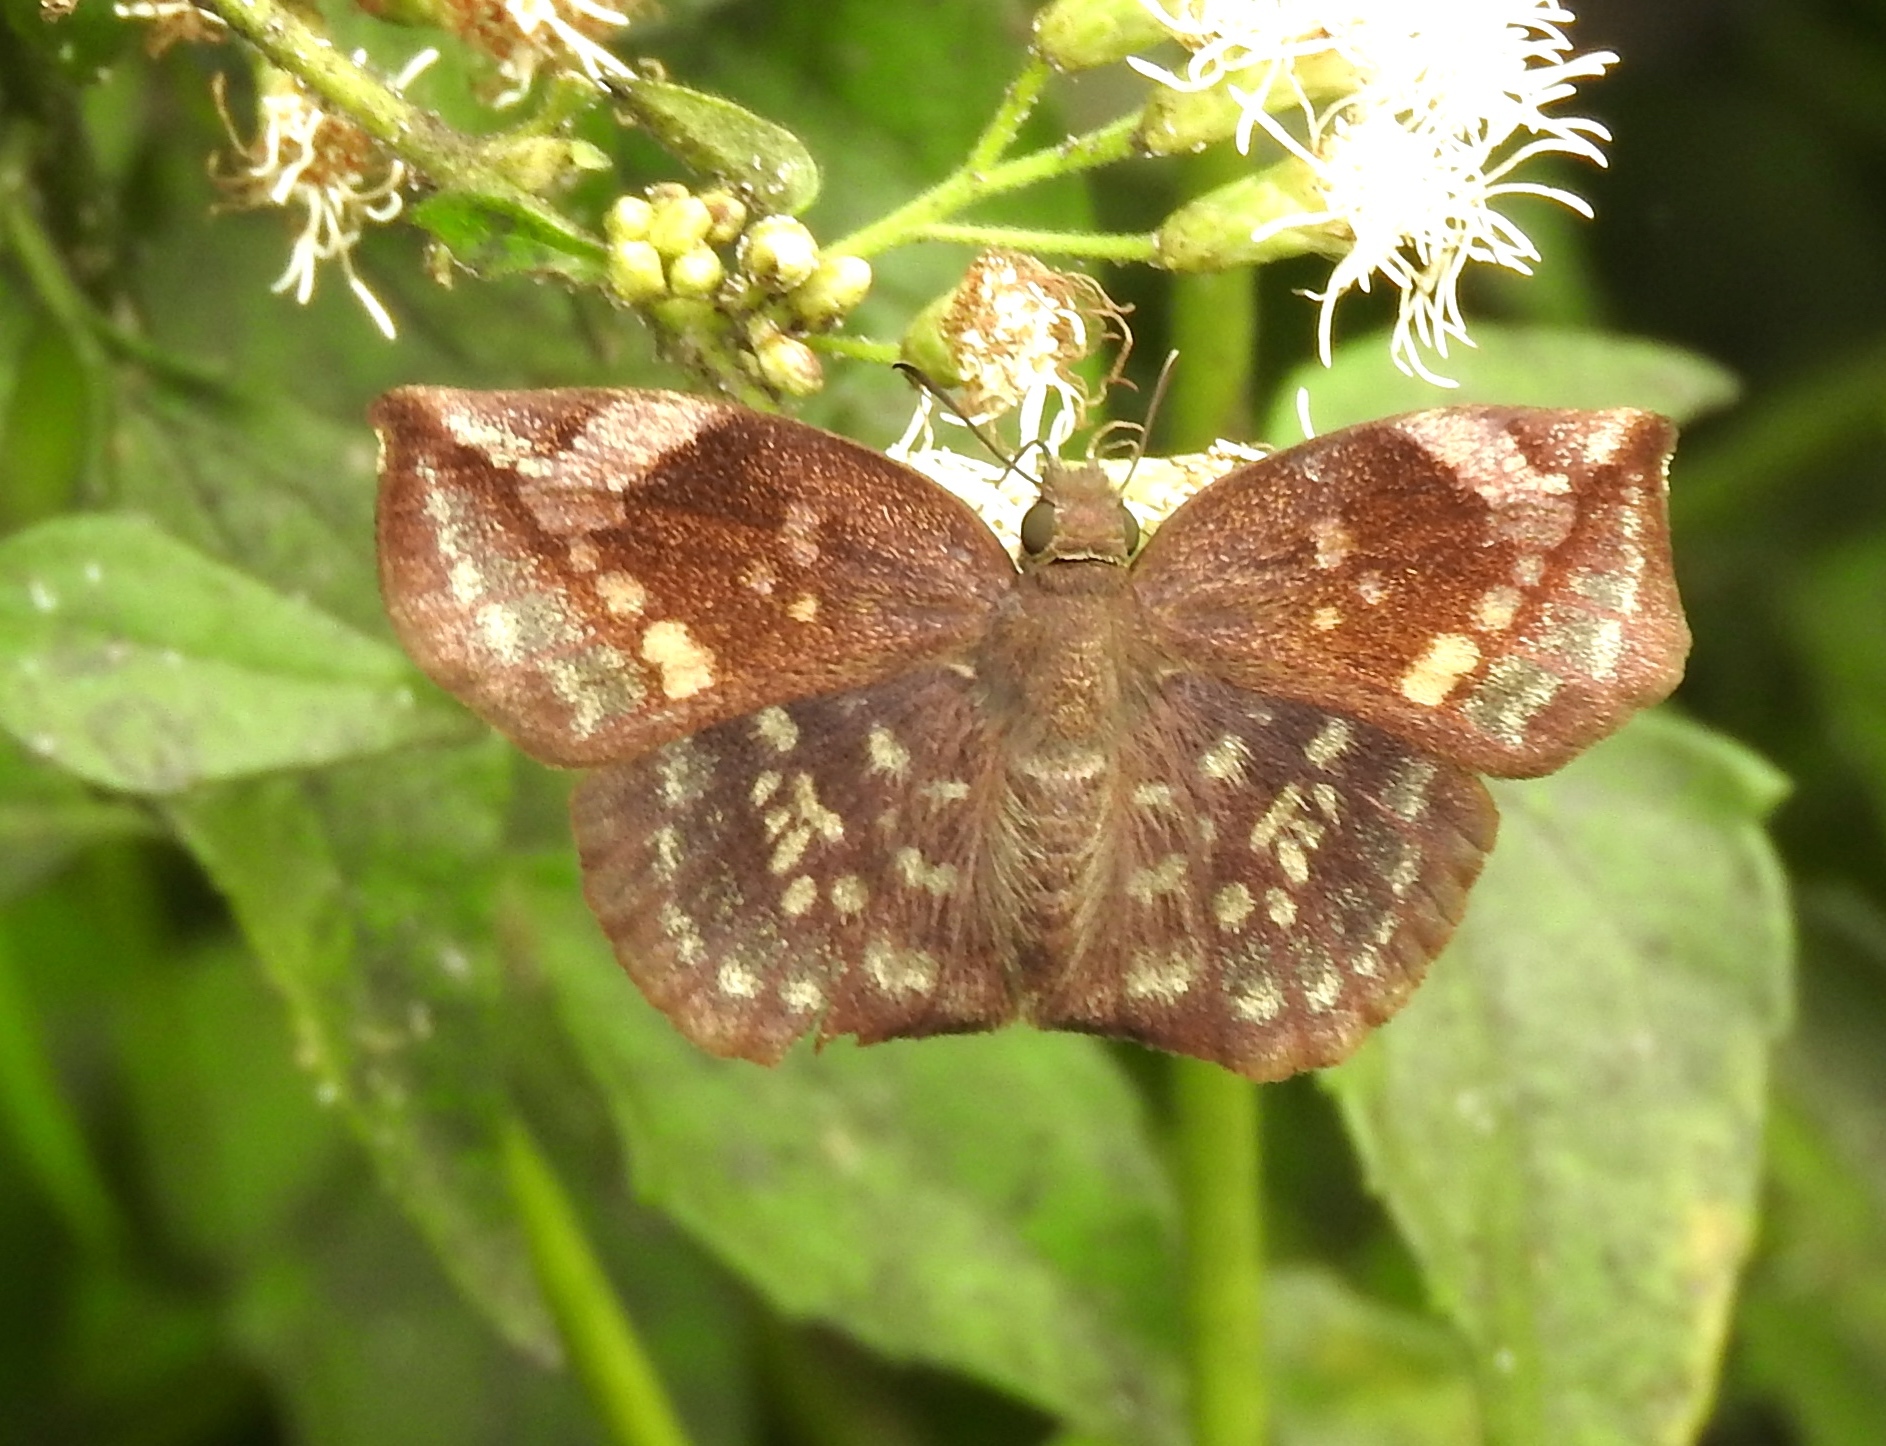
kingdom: Animalia
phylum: Arthropoda
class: Insecta
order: Lepidoptera
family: Hesperiidae
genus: Achlyodes
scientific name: Achlyodes thraso
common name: Sickle-winged skipper
